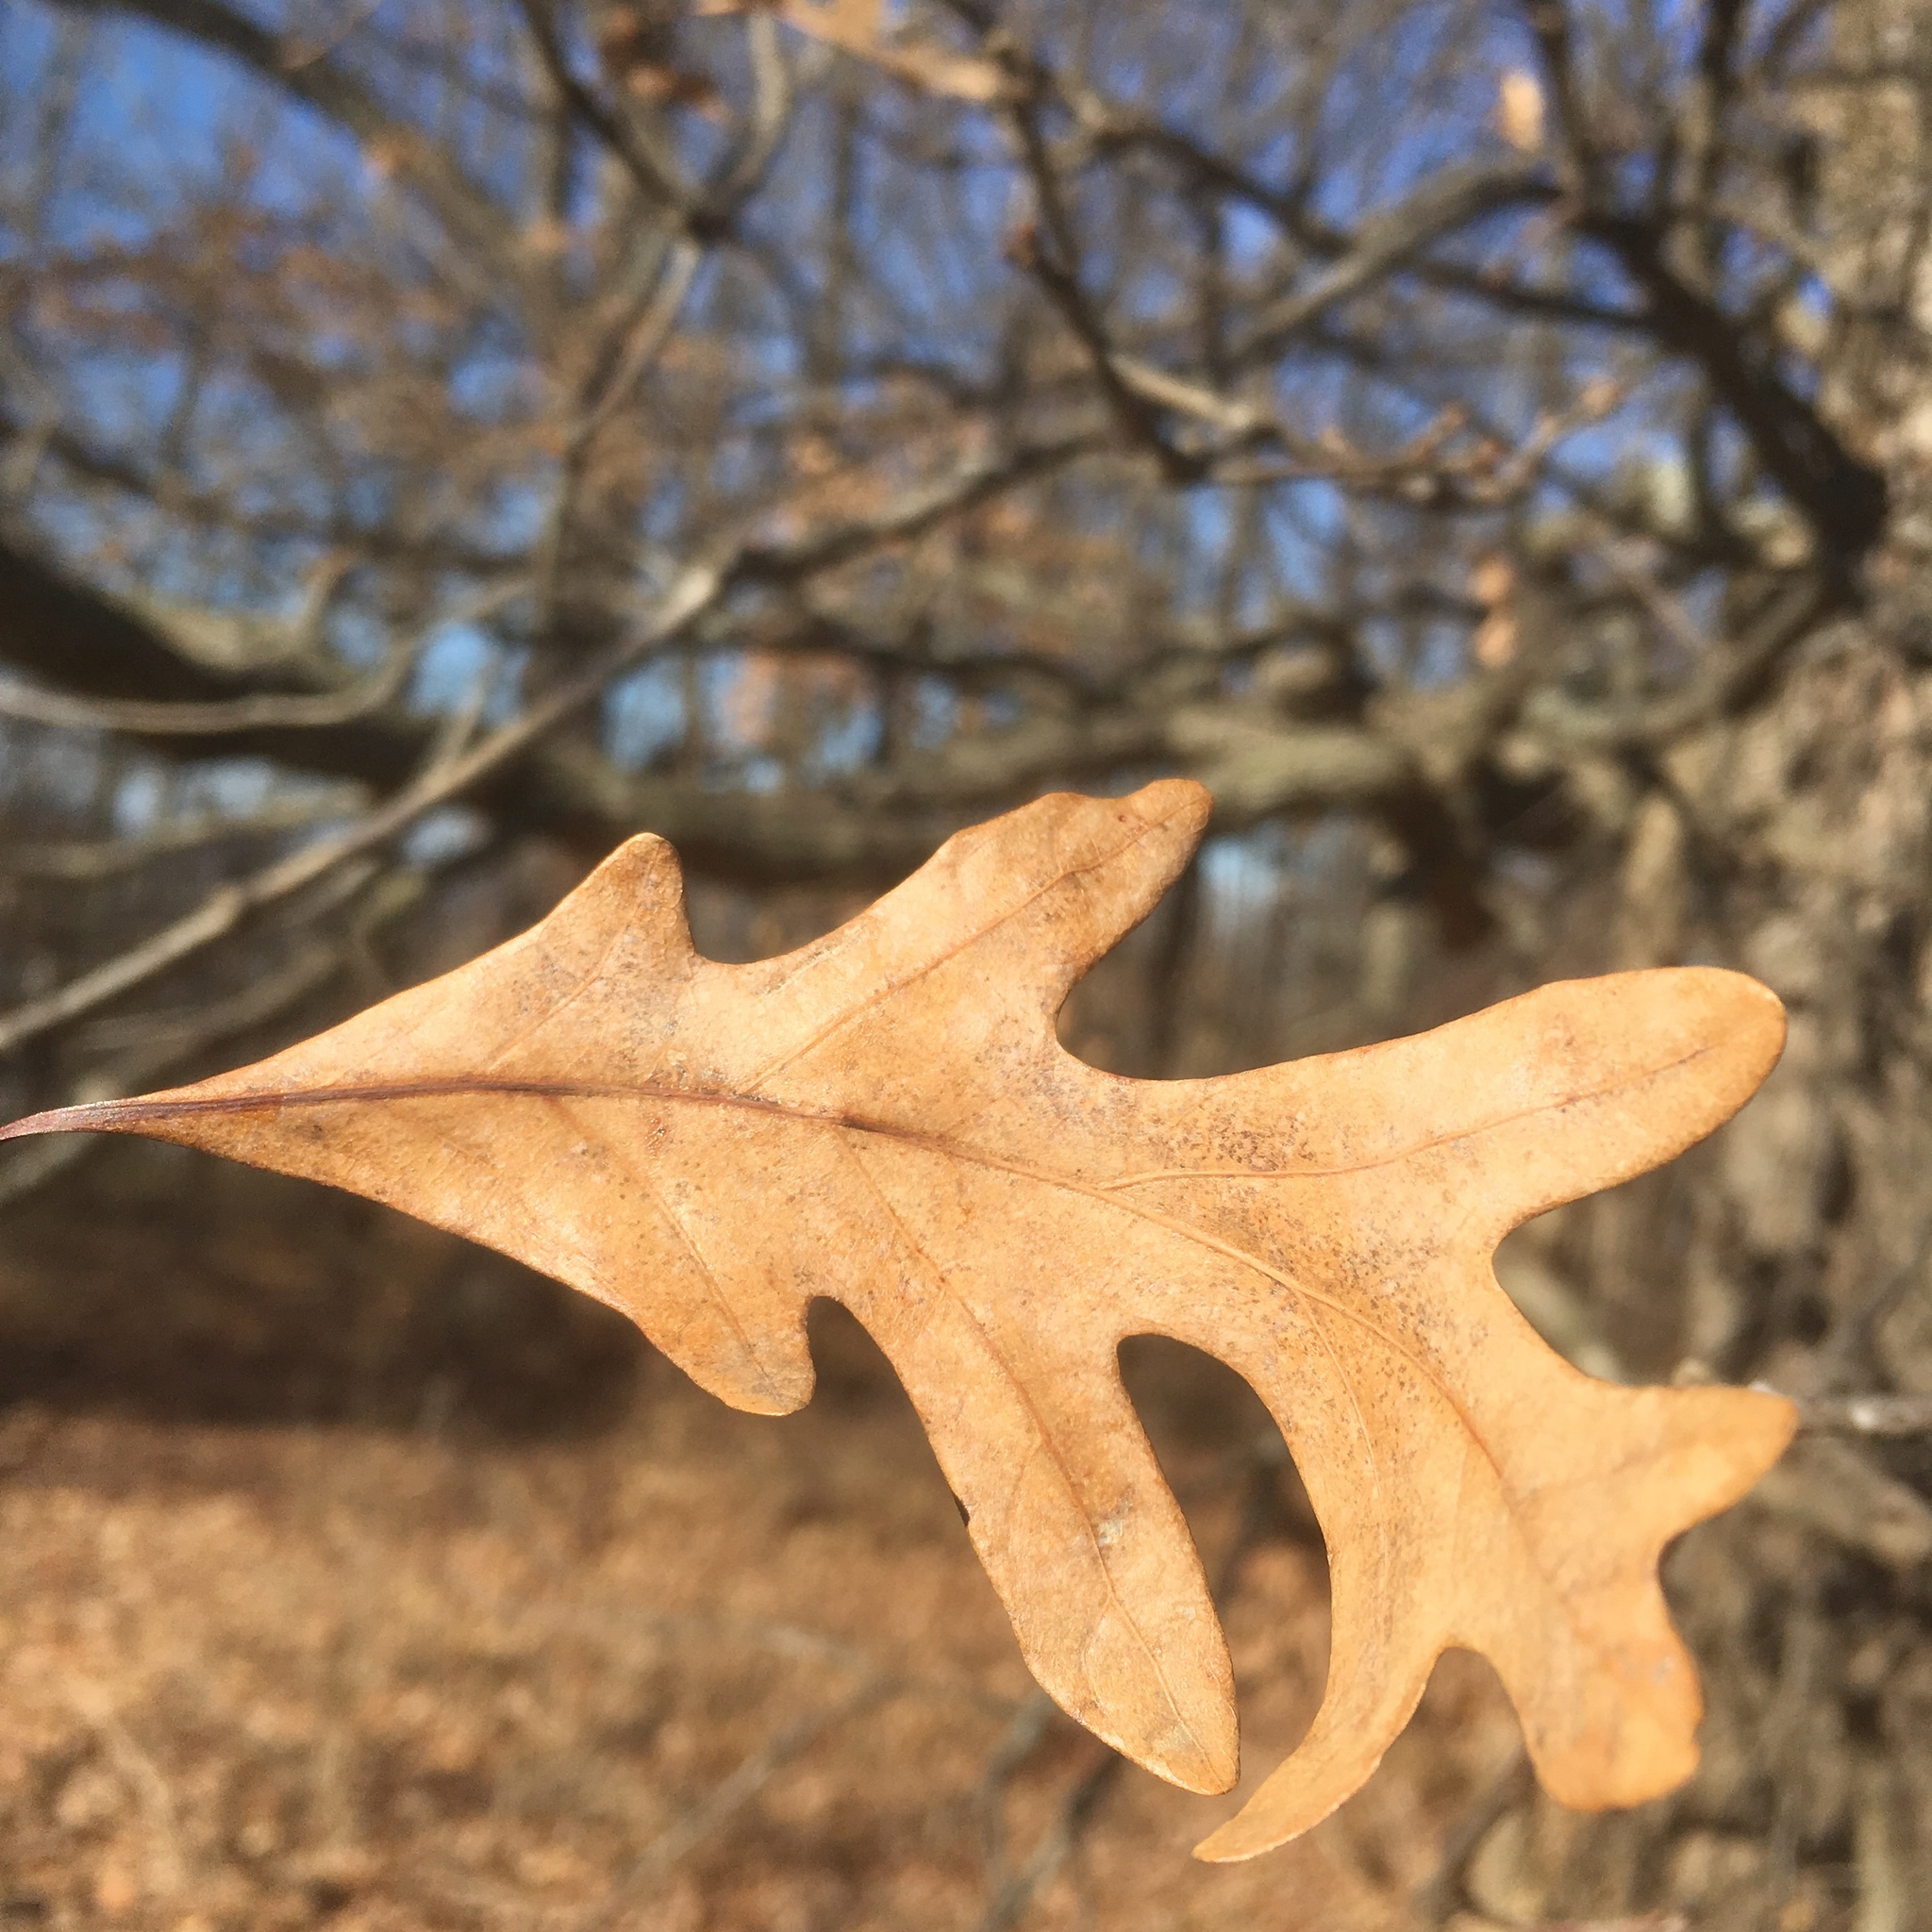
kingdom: Plantae
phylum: Tracheophyta
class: Magnoliopsida
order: Fagales
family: Fagaceae
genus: Quercus
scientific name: Quercus alba
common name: White oak
